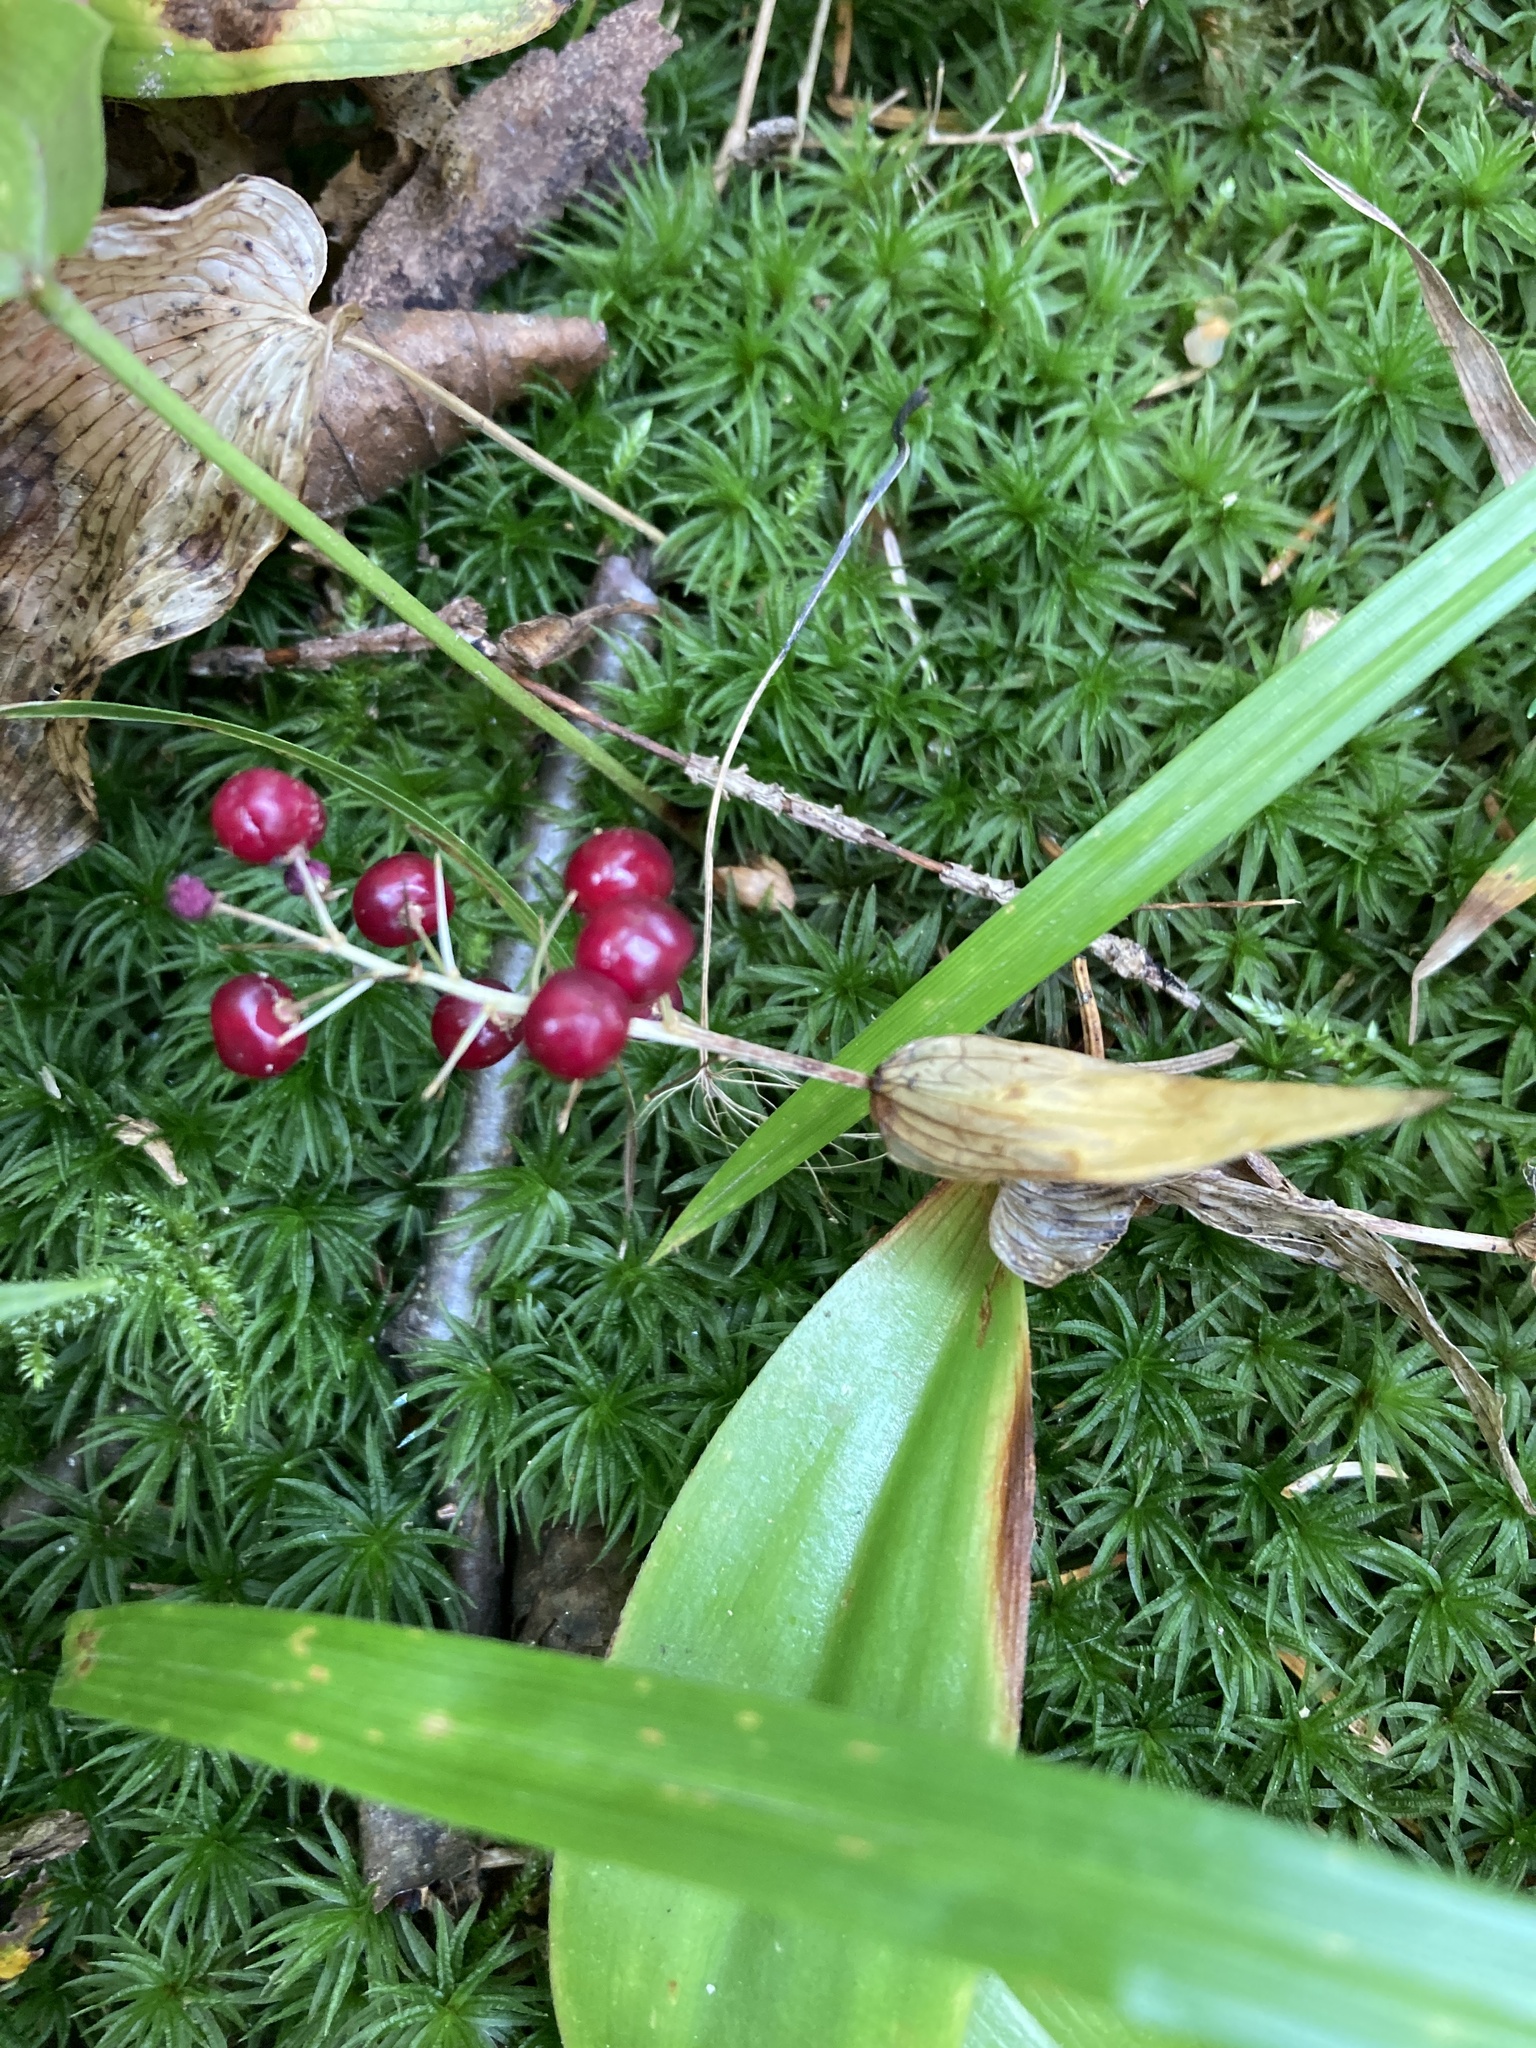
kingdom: Plantae
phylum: Tracheophyta
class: Liliopsida
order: Asparagales
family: Asparagaceae
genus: Maianthemum
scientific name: Maianthemum canadense
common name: False lily-of-the-valley
